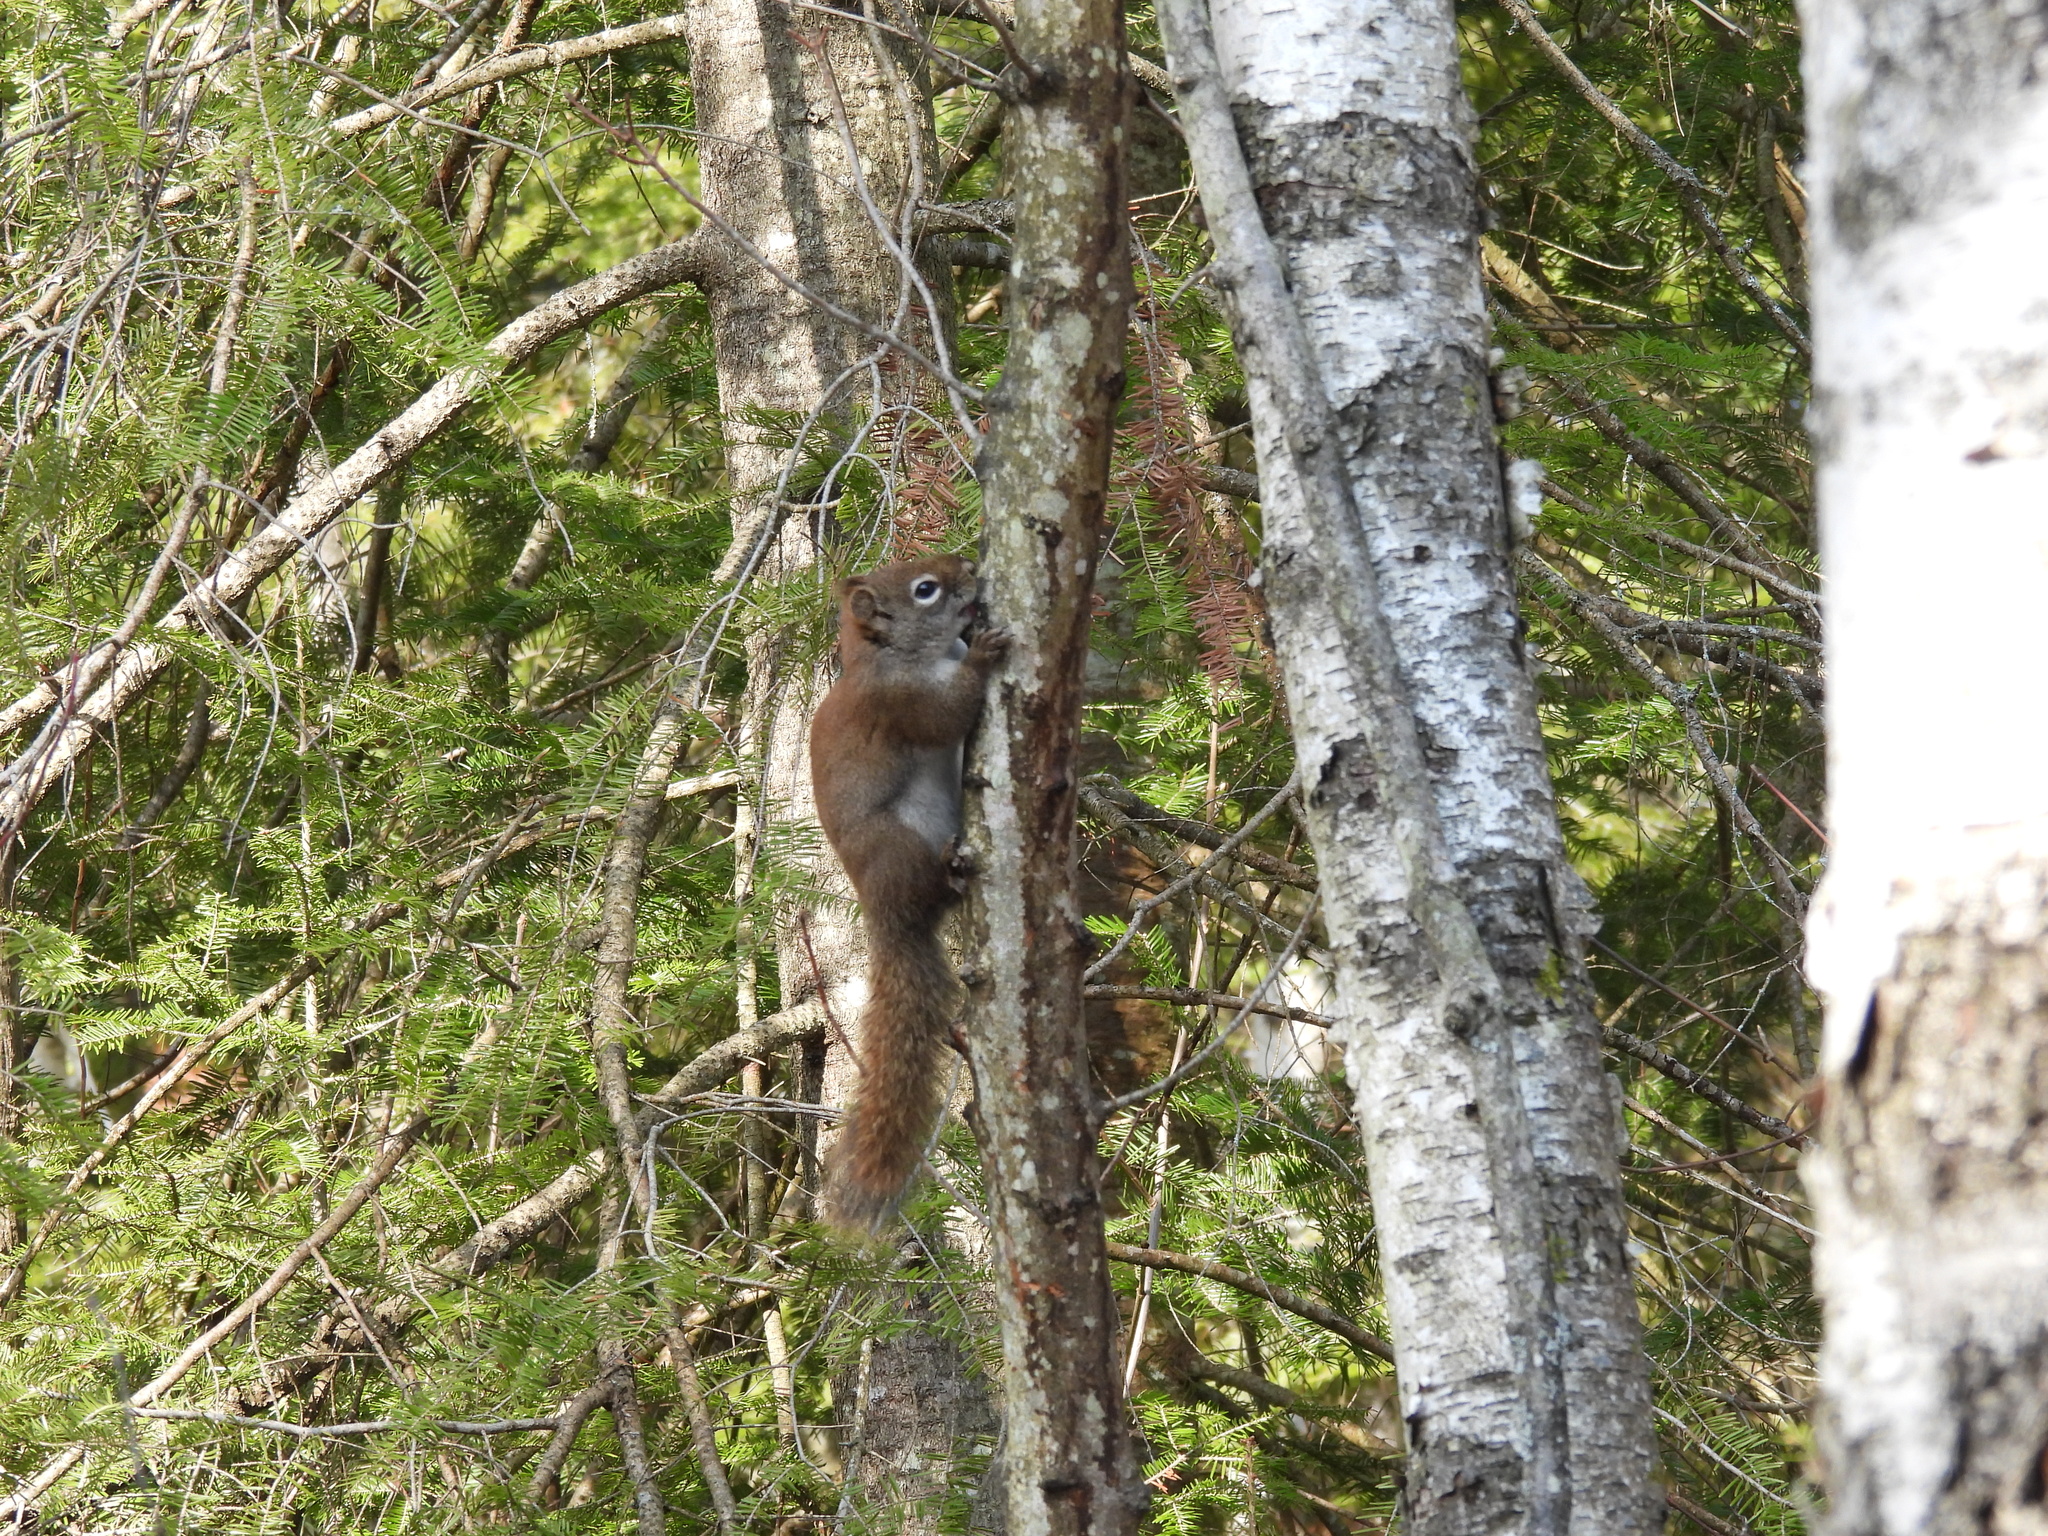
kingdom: Animalia
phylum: Chordata
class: Mammalia
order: Rodentia
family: Sciuridae
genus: Tamiasciurus
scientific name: Tamiasciurus hudsonicus
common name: Red squirrel
